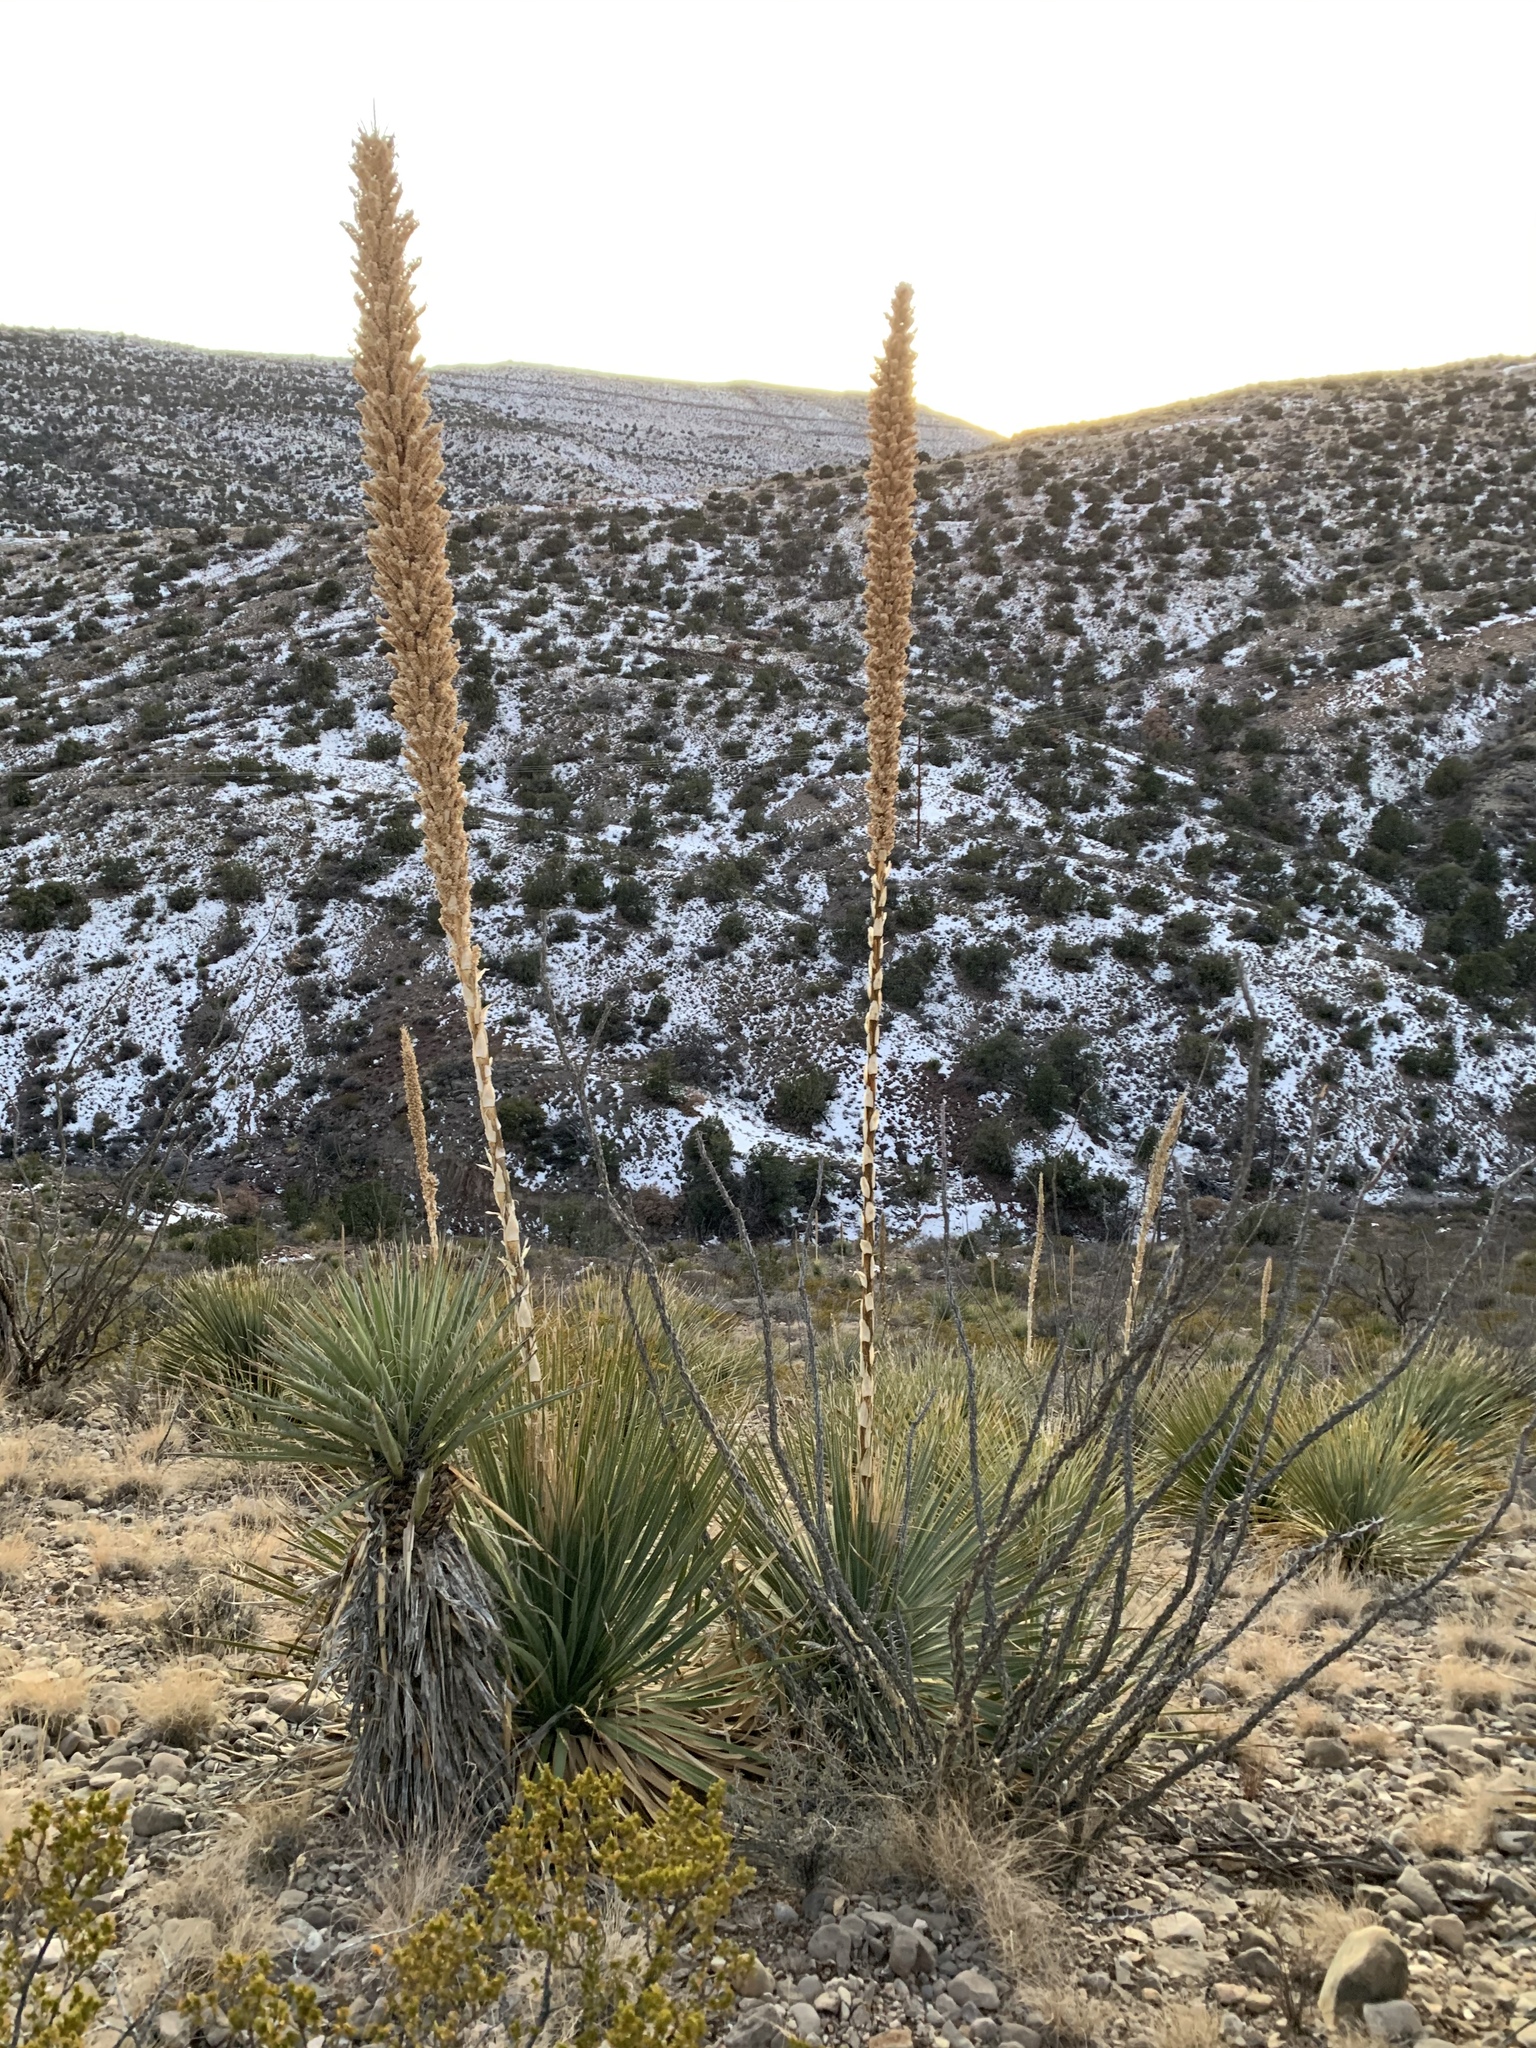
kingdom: Plantae
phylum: Tracheophyta
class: Liliopsida
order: Asparagales
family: Asparagaceae
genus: Dasylirion
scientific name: Dasylirion wheeleri
